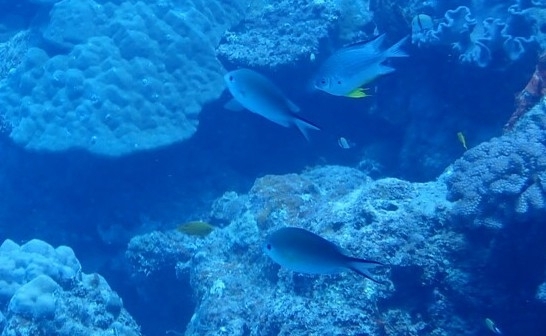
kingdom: Animalia
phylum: Chordata
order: Perciformes
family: Pomacentridae
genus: Chromis
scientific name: Chromis ternatensis
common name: Ternate chromis
